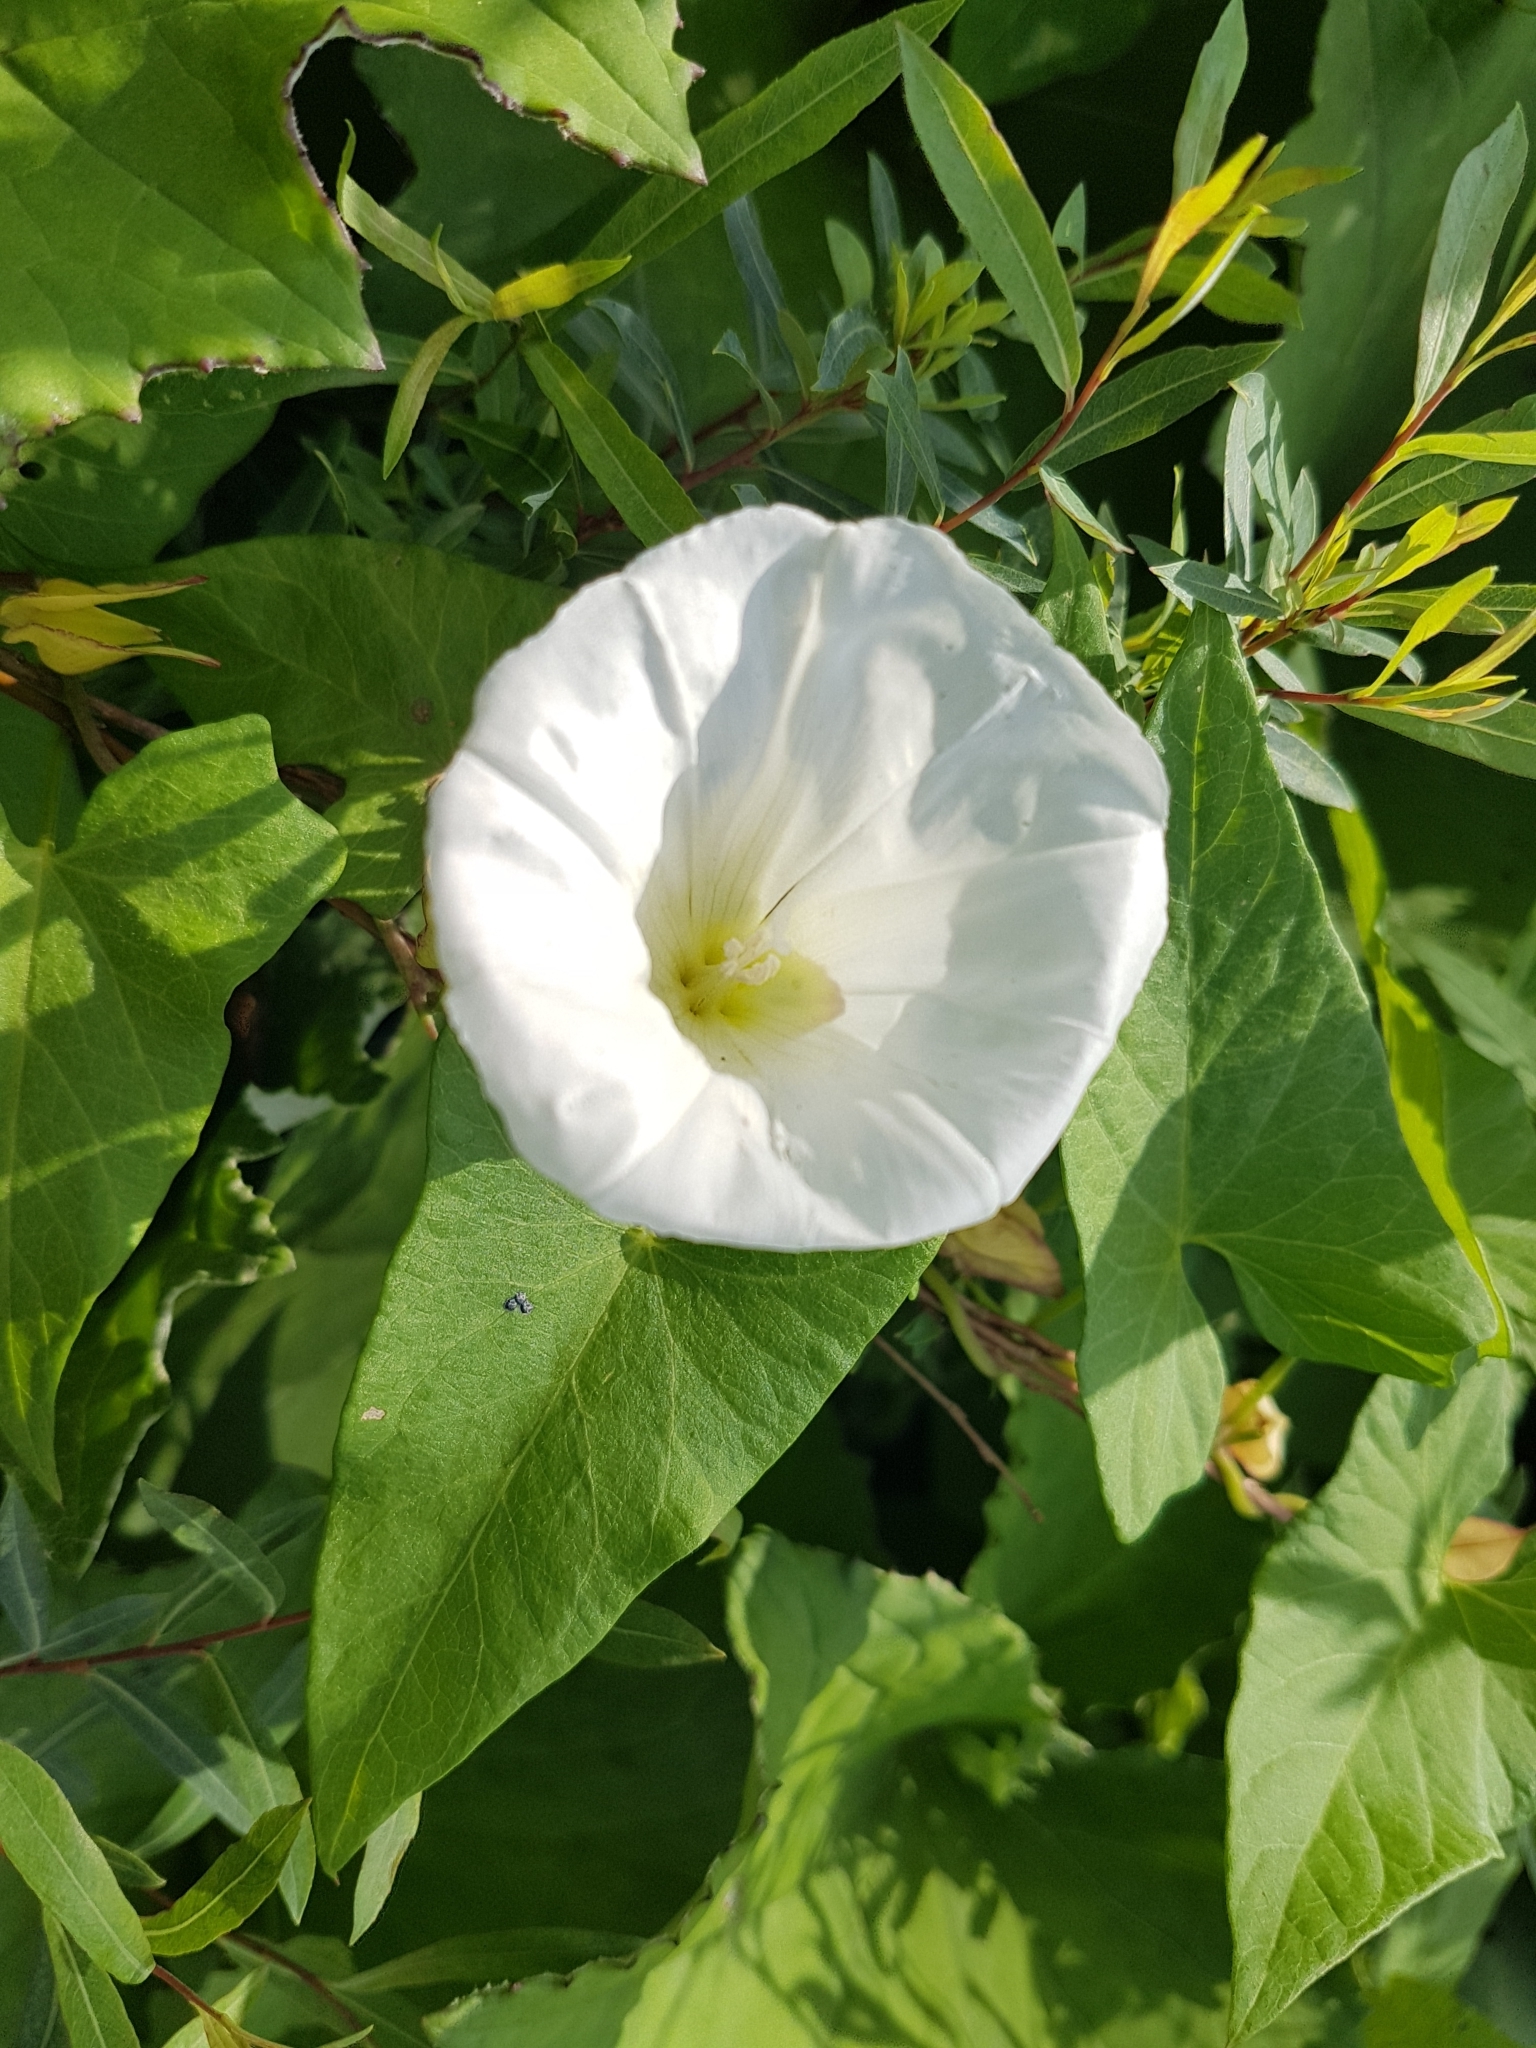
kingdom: Plantae
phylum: Tracheophyta
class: Magnoliopsida
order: Solanales
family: Convolvulaceae
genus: Calystegia
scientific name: Calystegia sepium
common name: Hedge bindweed
